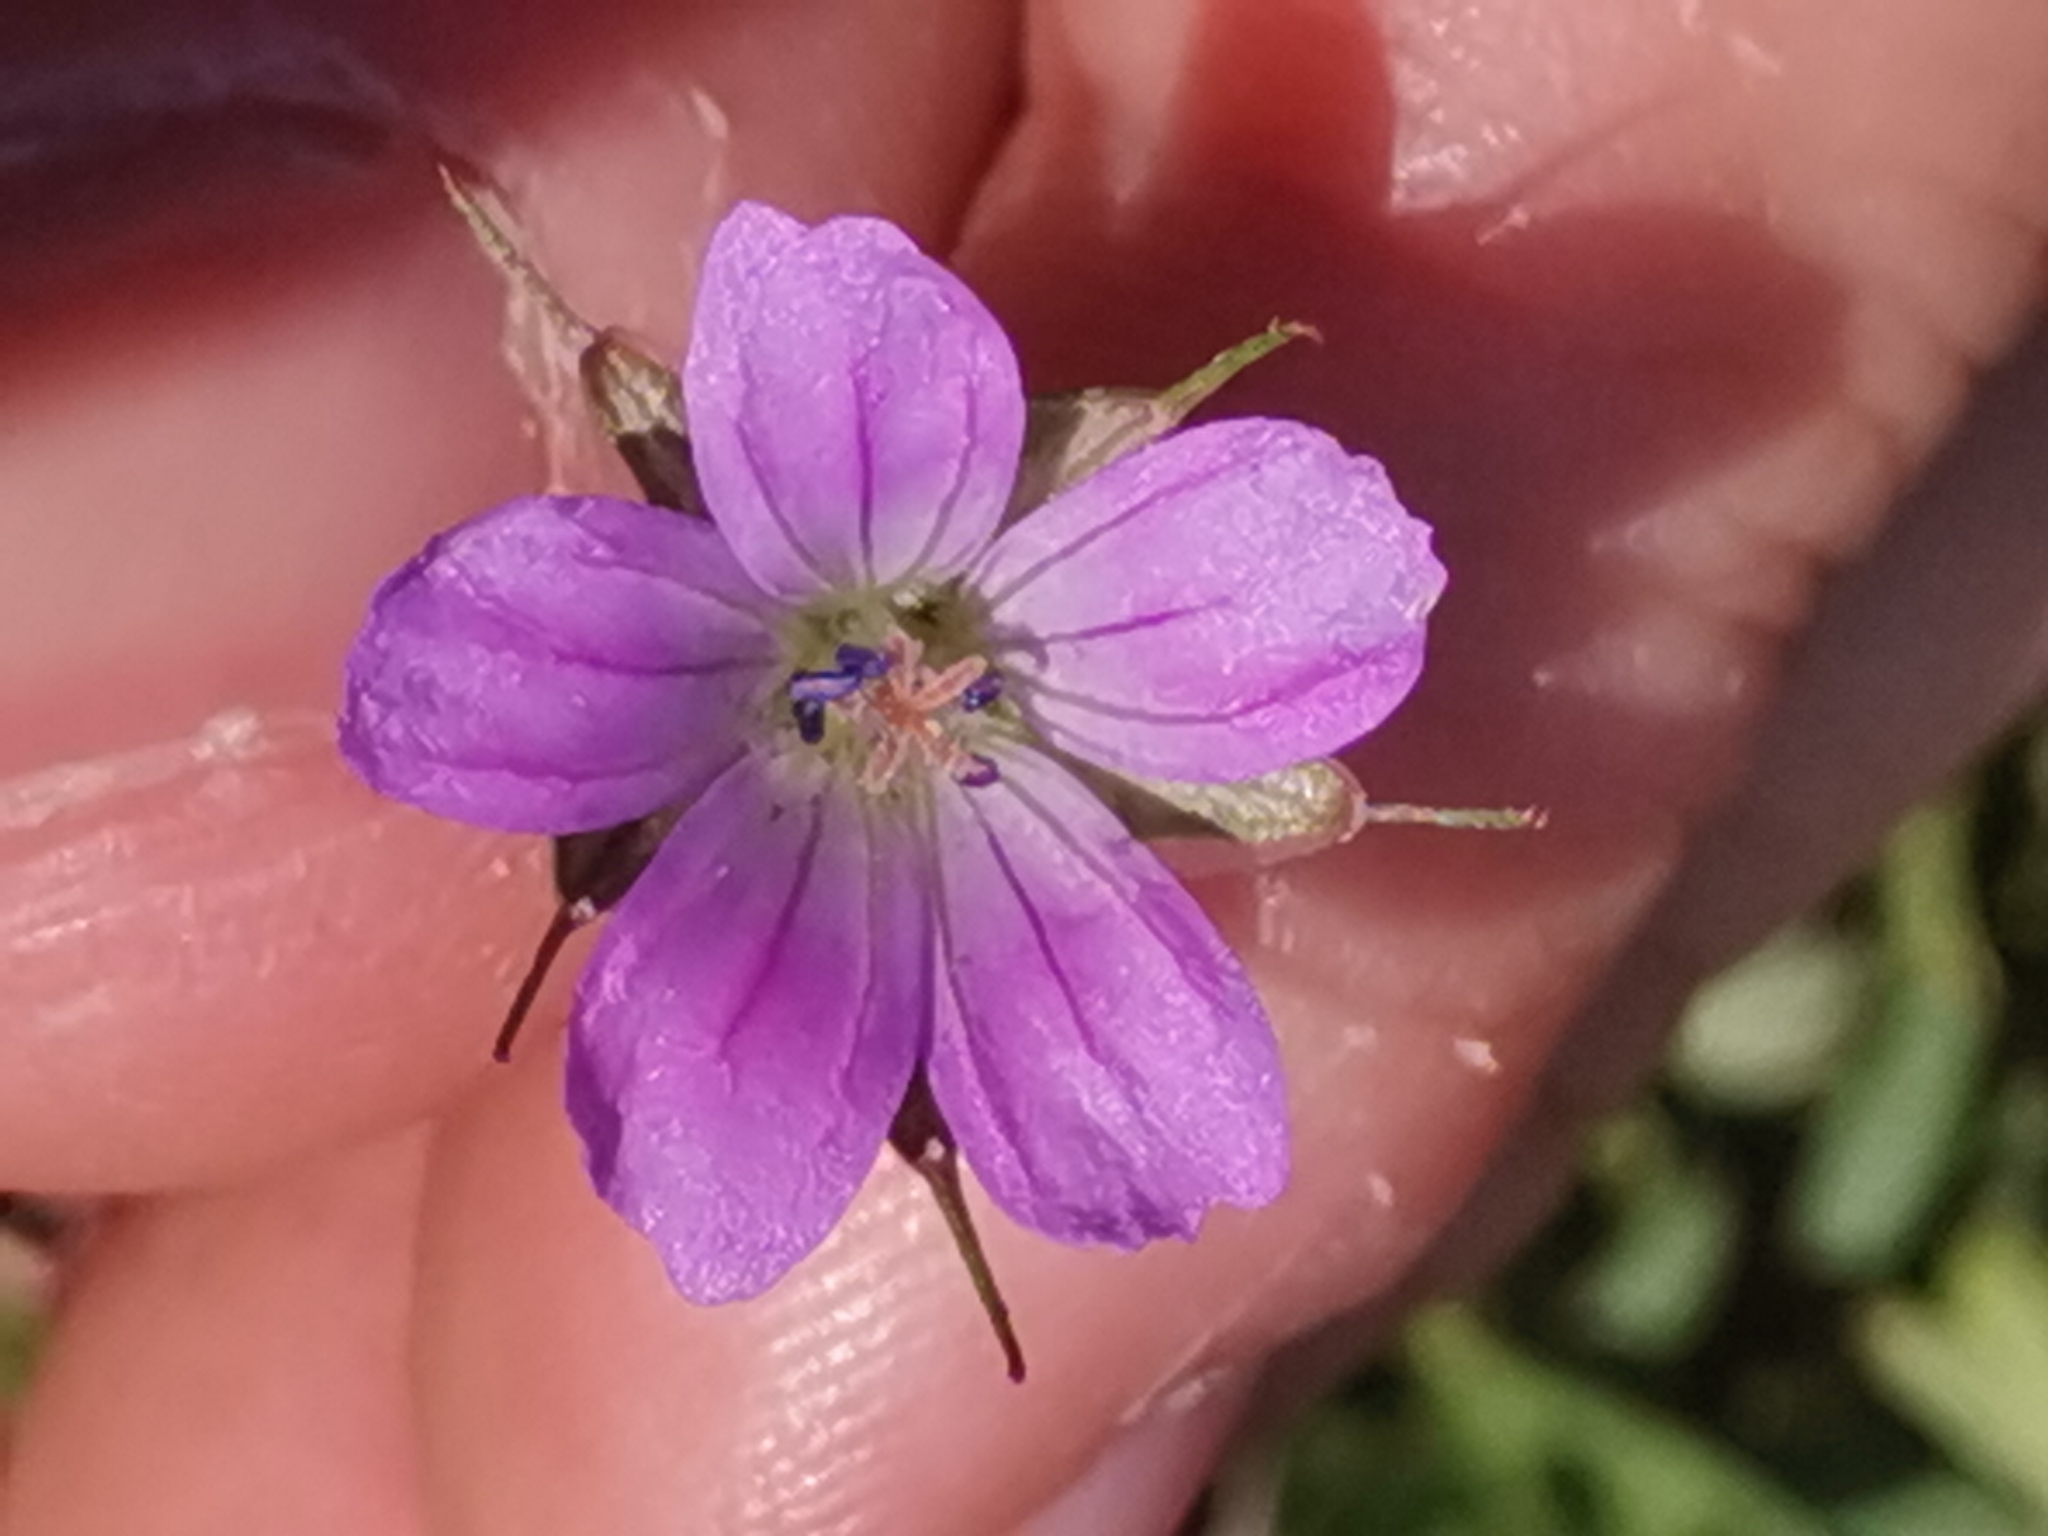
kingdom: Plantae
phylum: Tracheophyta
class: Magnoliopsida
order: Geraniales
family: Geraniaceae
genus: Geranium
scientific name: Geranium columbinum
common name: Long-stalked crane's-bill
